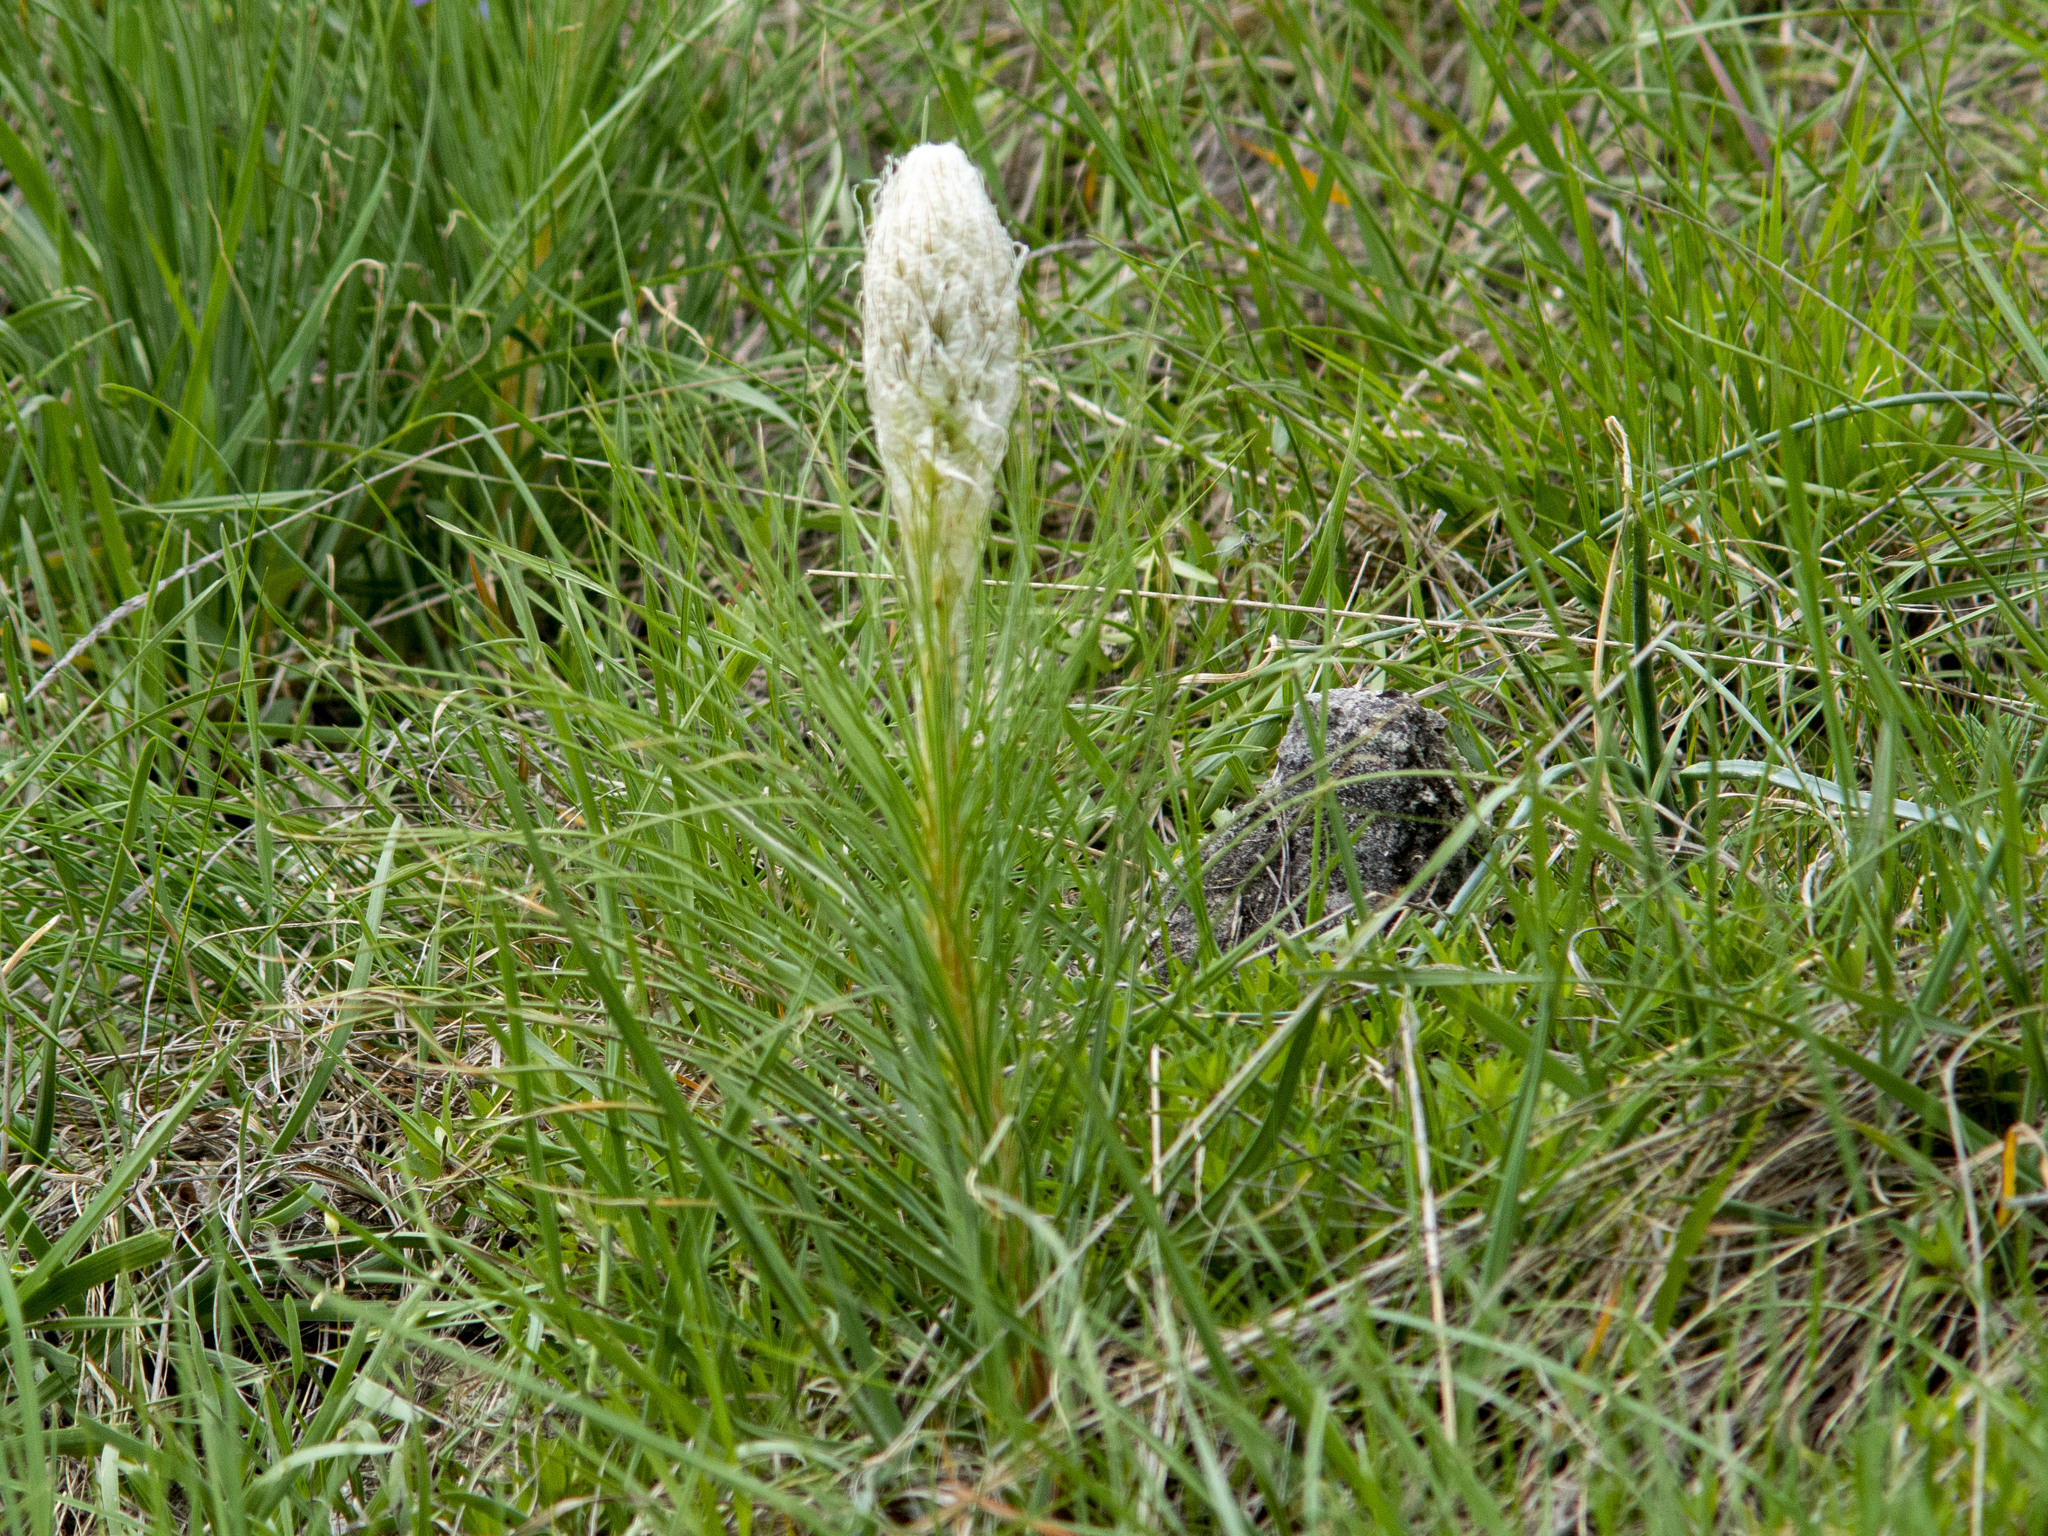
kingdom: Plantae
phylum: Tracheophyta
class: Liliopsida
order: Asparagales
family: Asphodelaceae
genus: Asphodeline
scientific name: Asphodeline taurica
